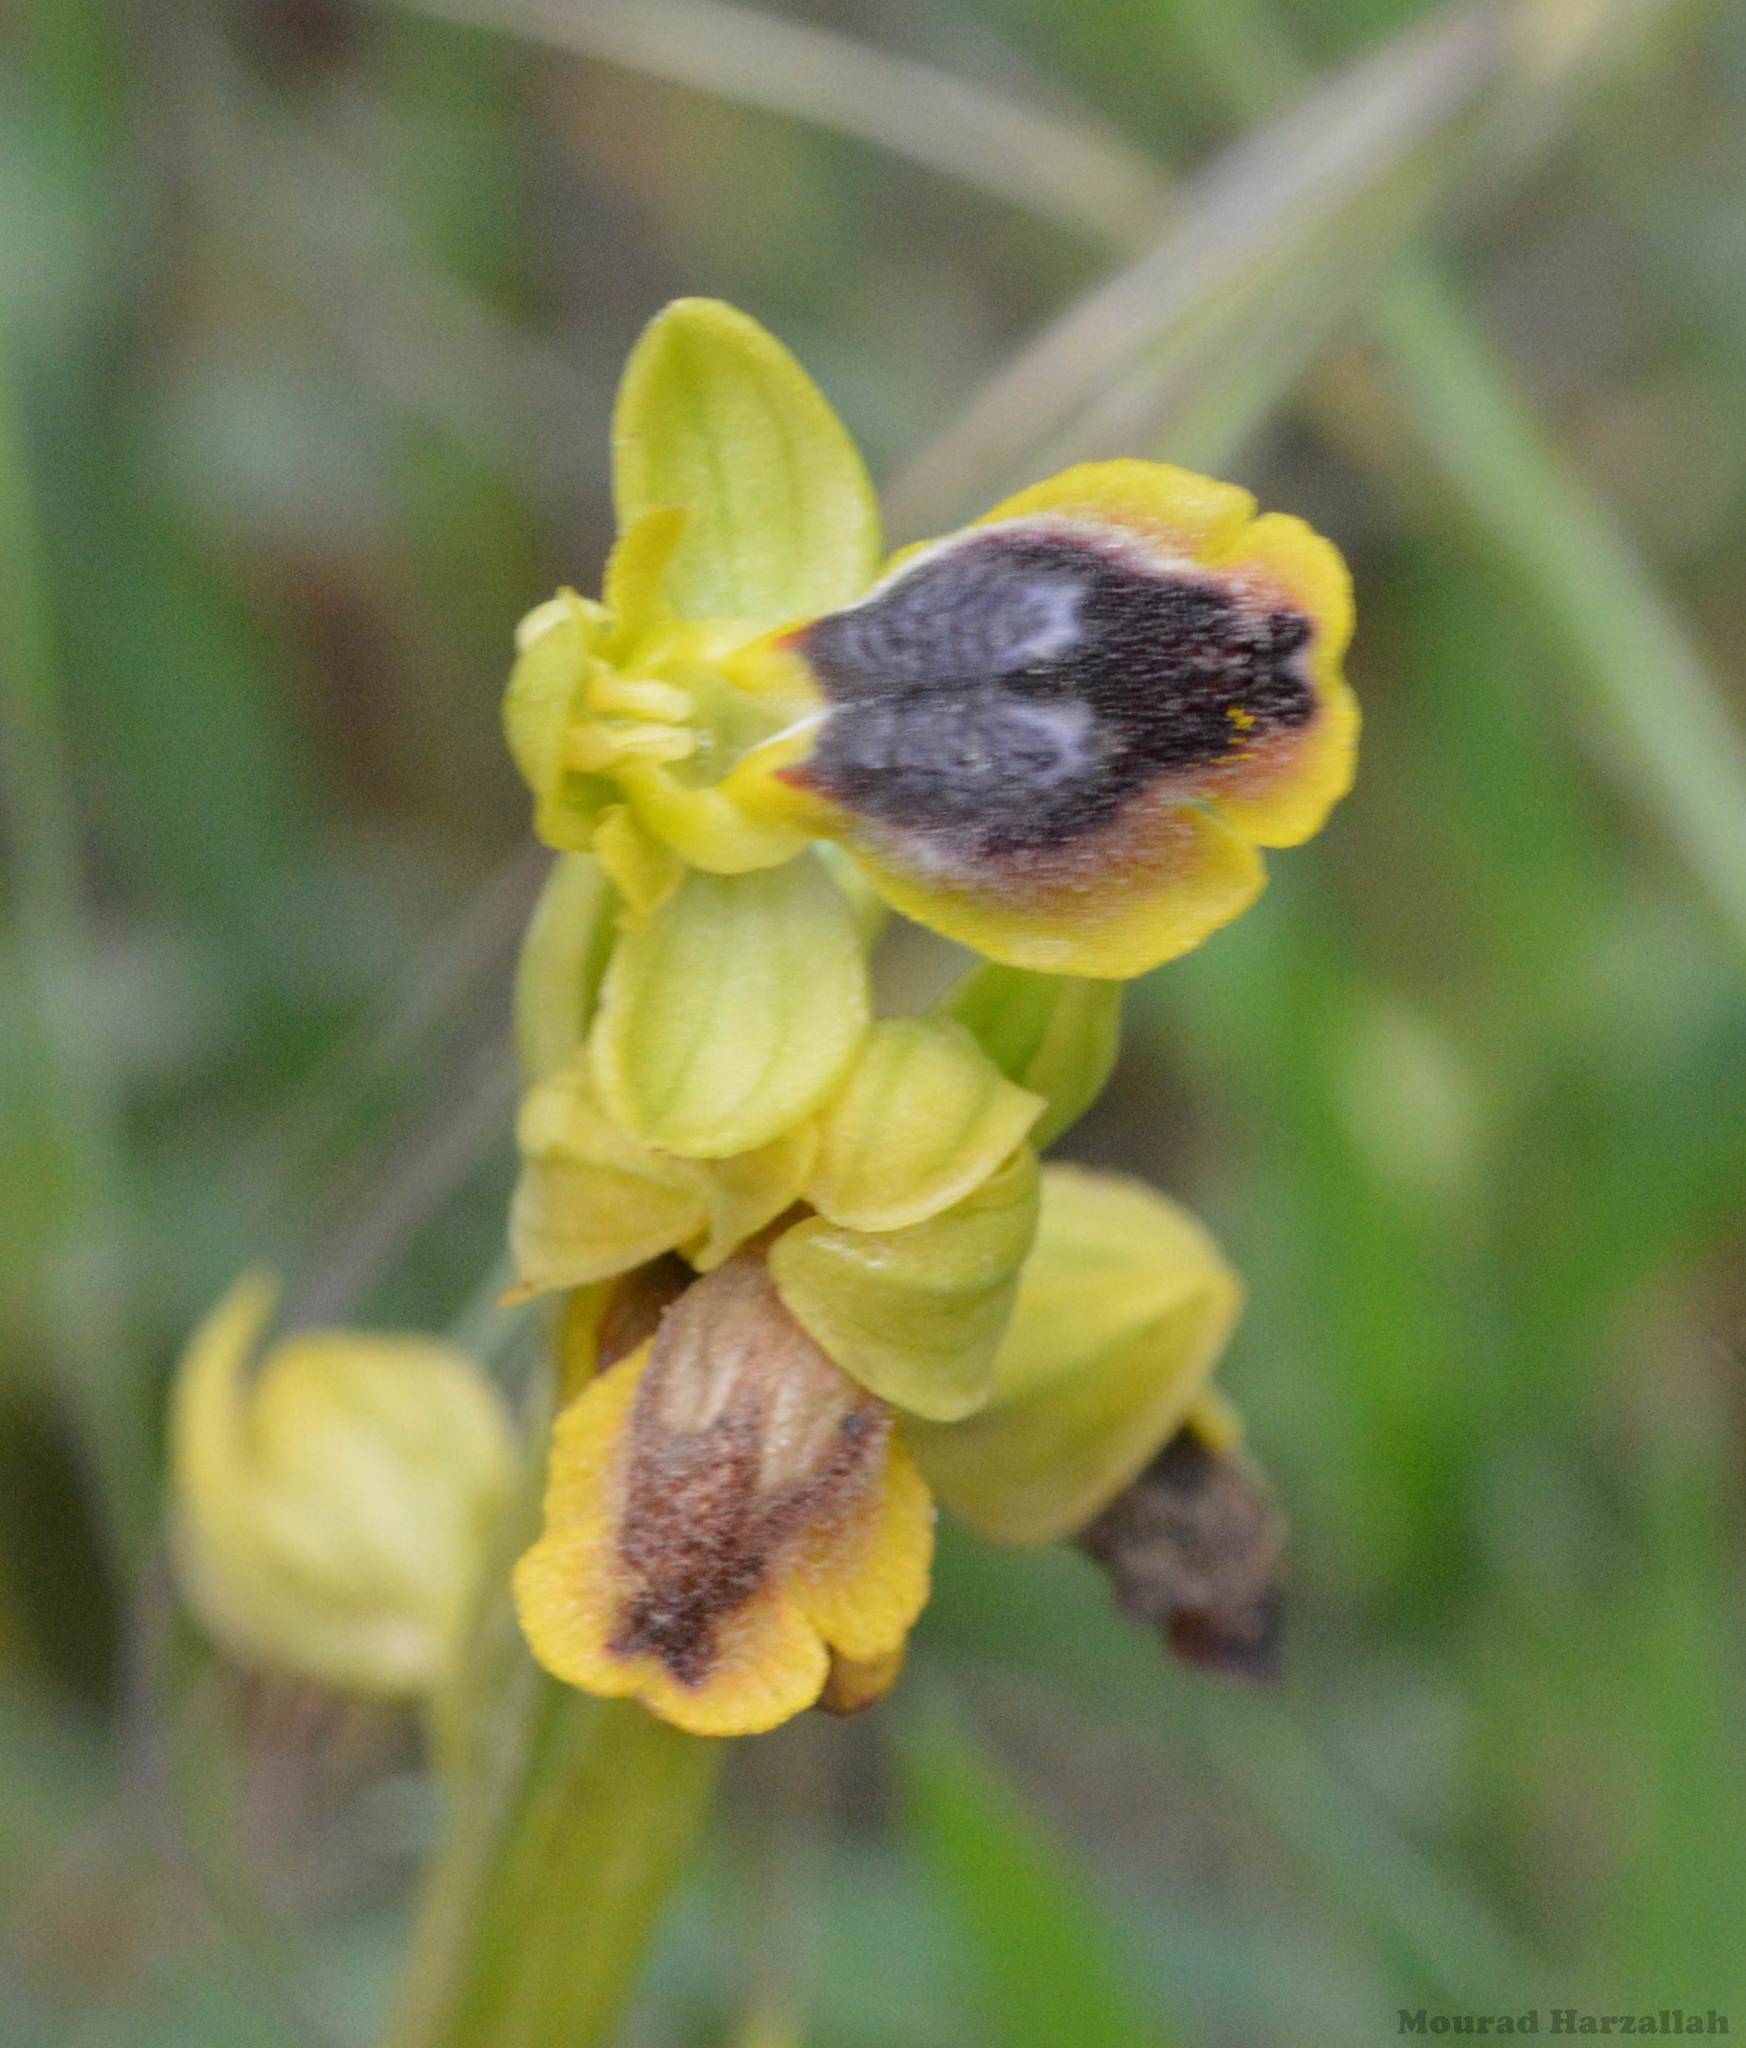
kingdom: Plantae
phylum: Tracheophyta
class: Liliopsida
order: Asparagales
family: Orchidaceae
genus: Ophrys
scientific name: Ophrys battandieri
